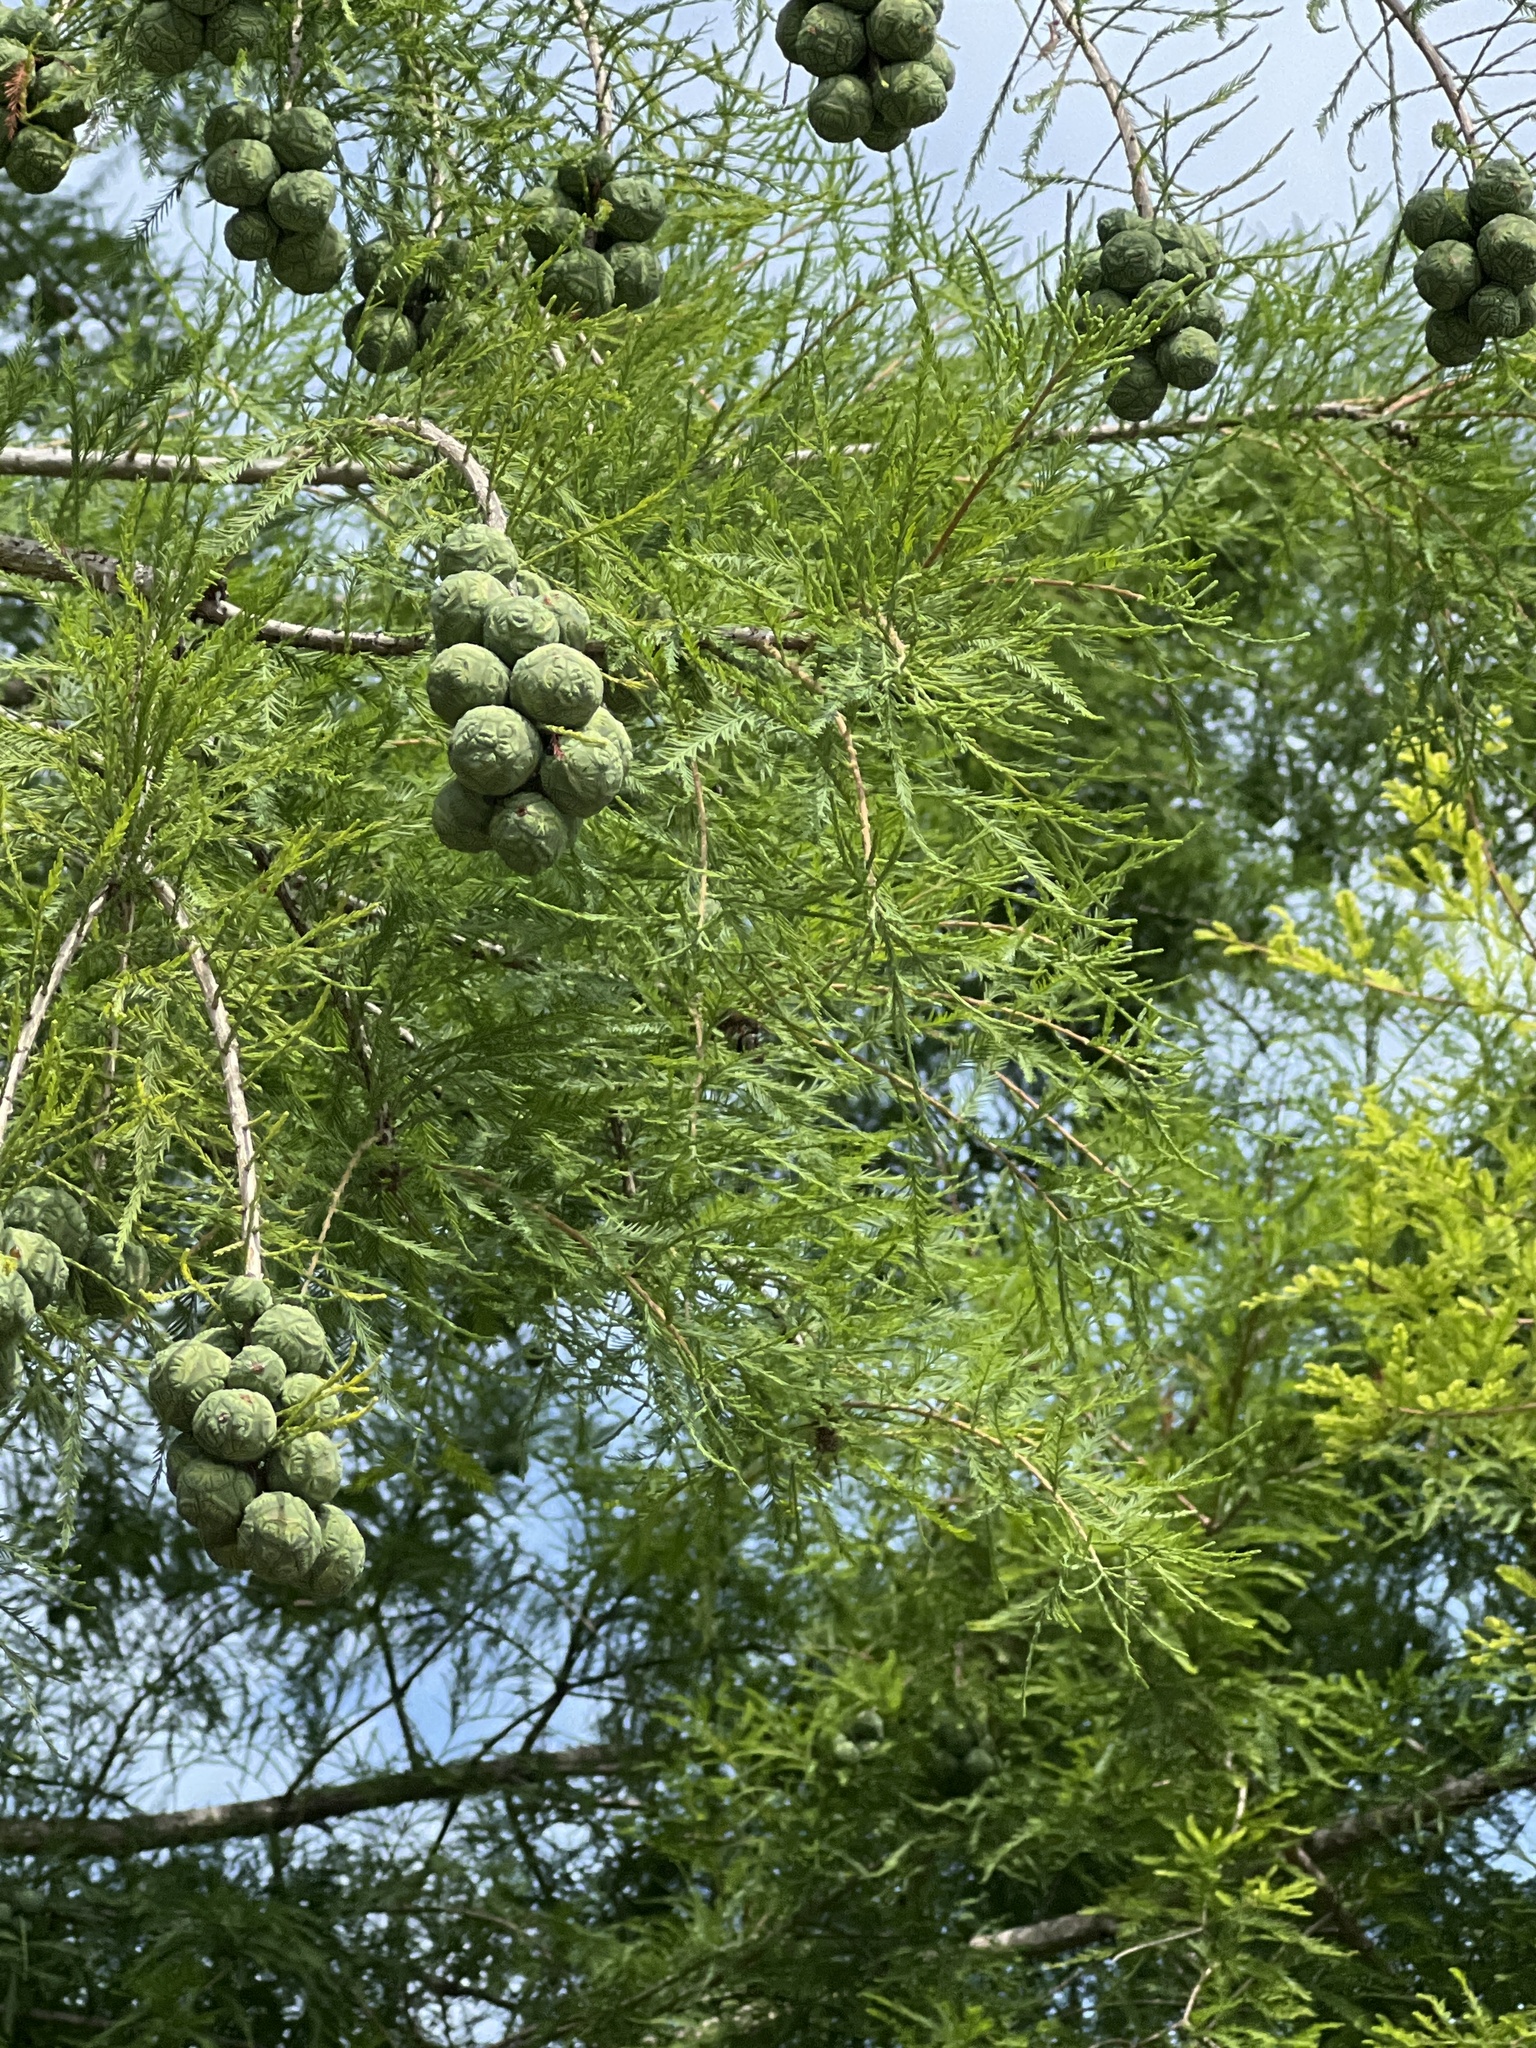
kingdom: Plantae
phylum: Tracheophyta
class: Pinopsida
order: Pinales
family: Cupressaceae
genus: Taxodium
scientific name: Taxodium distichum
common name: Bald cypress
